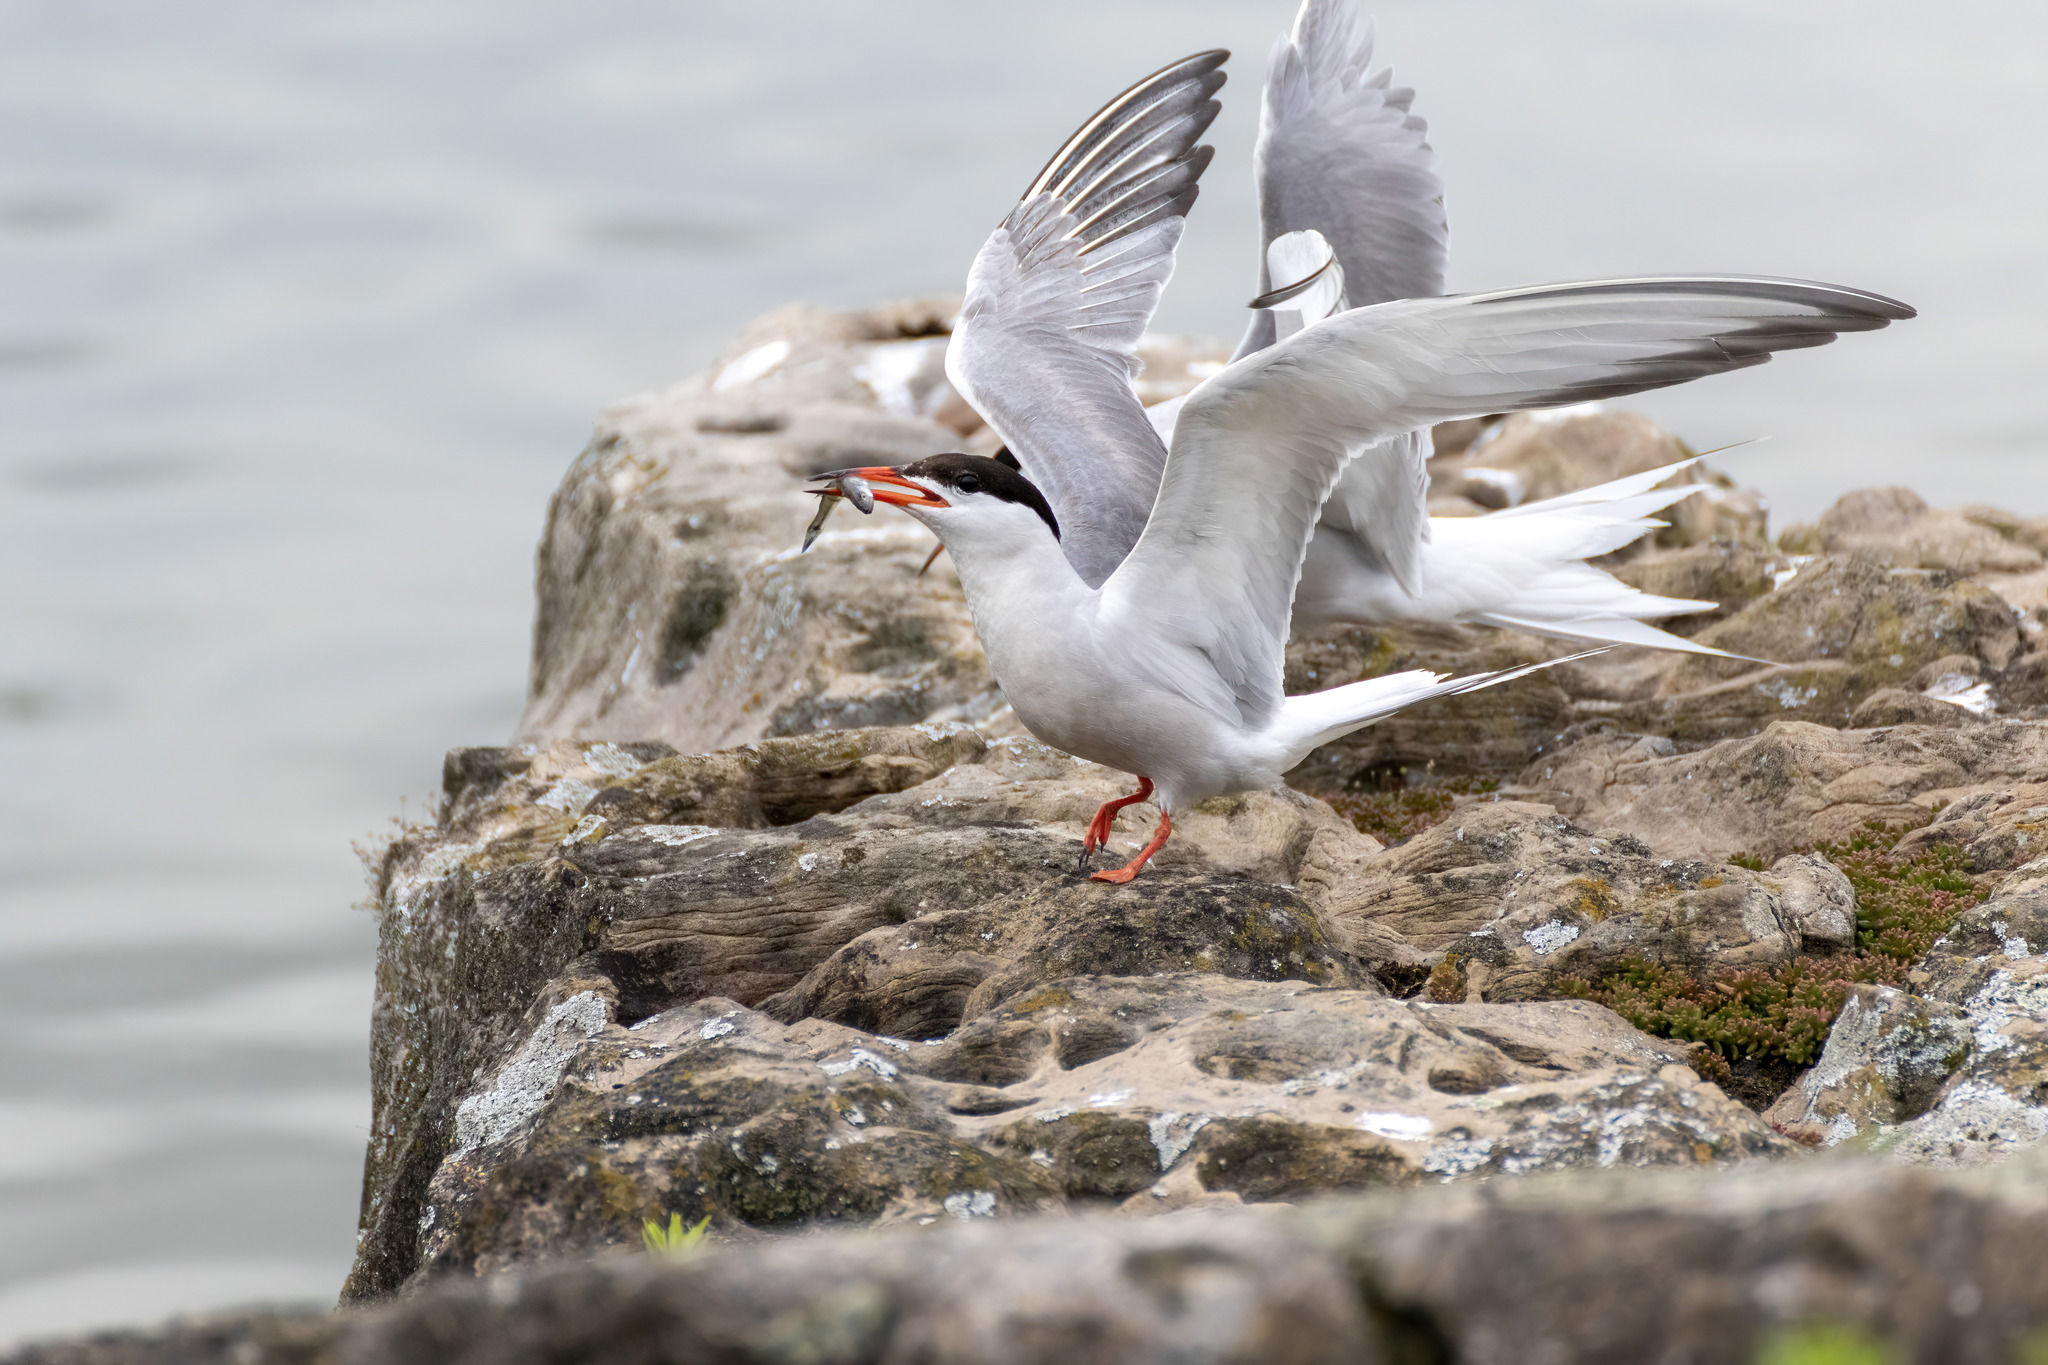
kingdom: Animalia
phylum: Chordata
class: Aves
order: Charadriiformes
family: Laridae
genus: Sterna
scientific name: Sterna hirundo
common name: Common tern
